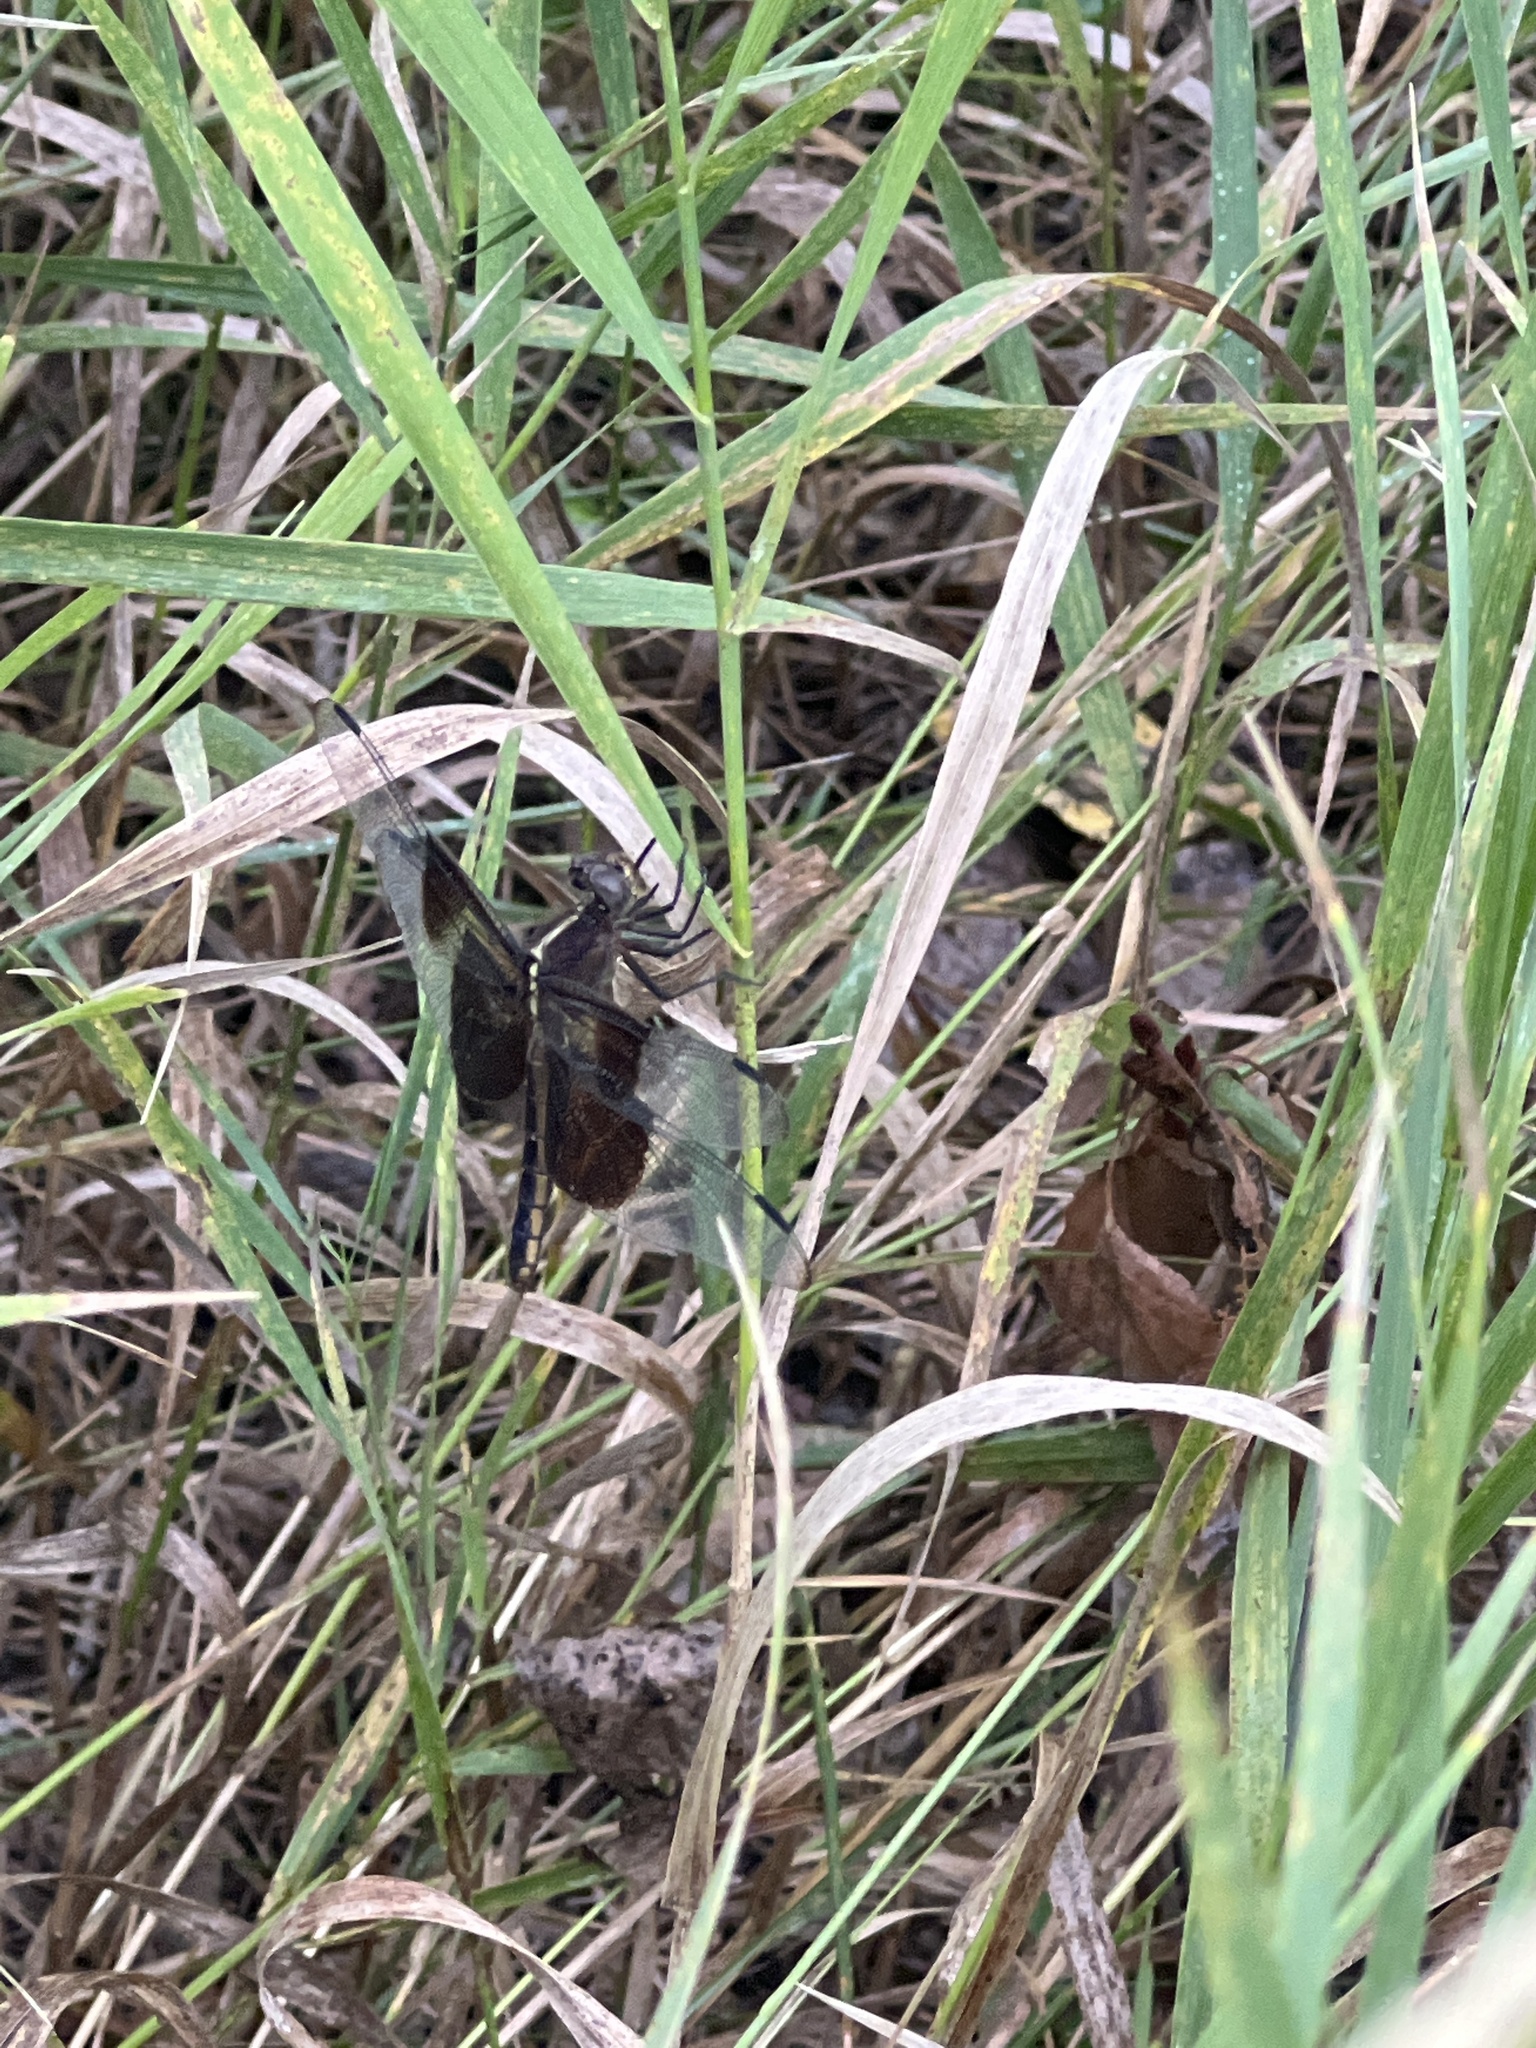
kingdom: Animalia
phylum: Arthropoda
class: Insecta
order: Odonata
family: Libellulidae
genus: Libellula
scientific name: Libellula luctuosa
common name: Widow skimmer
